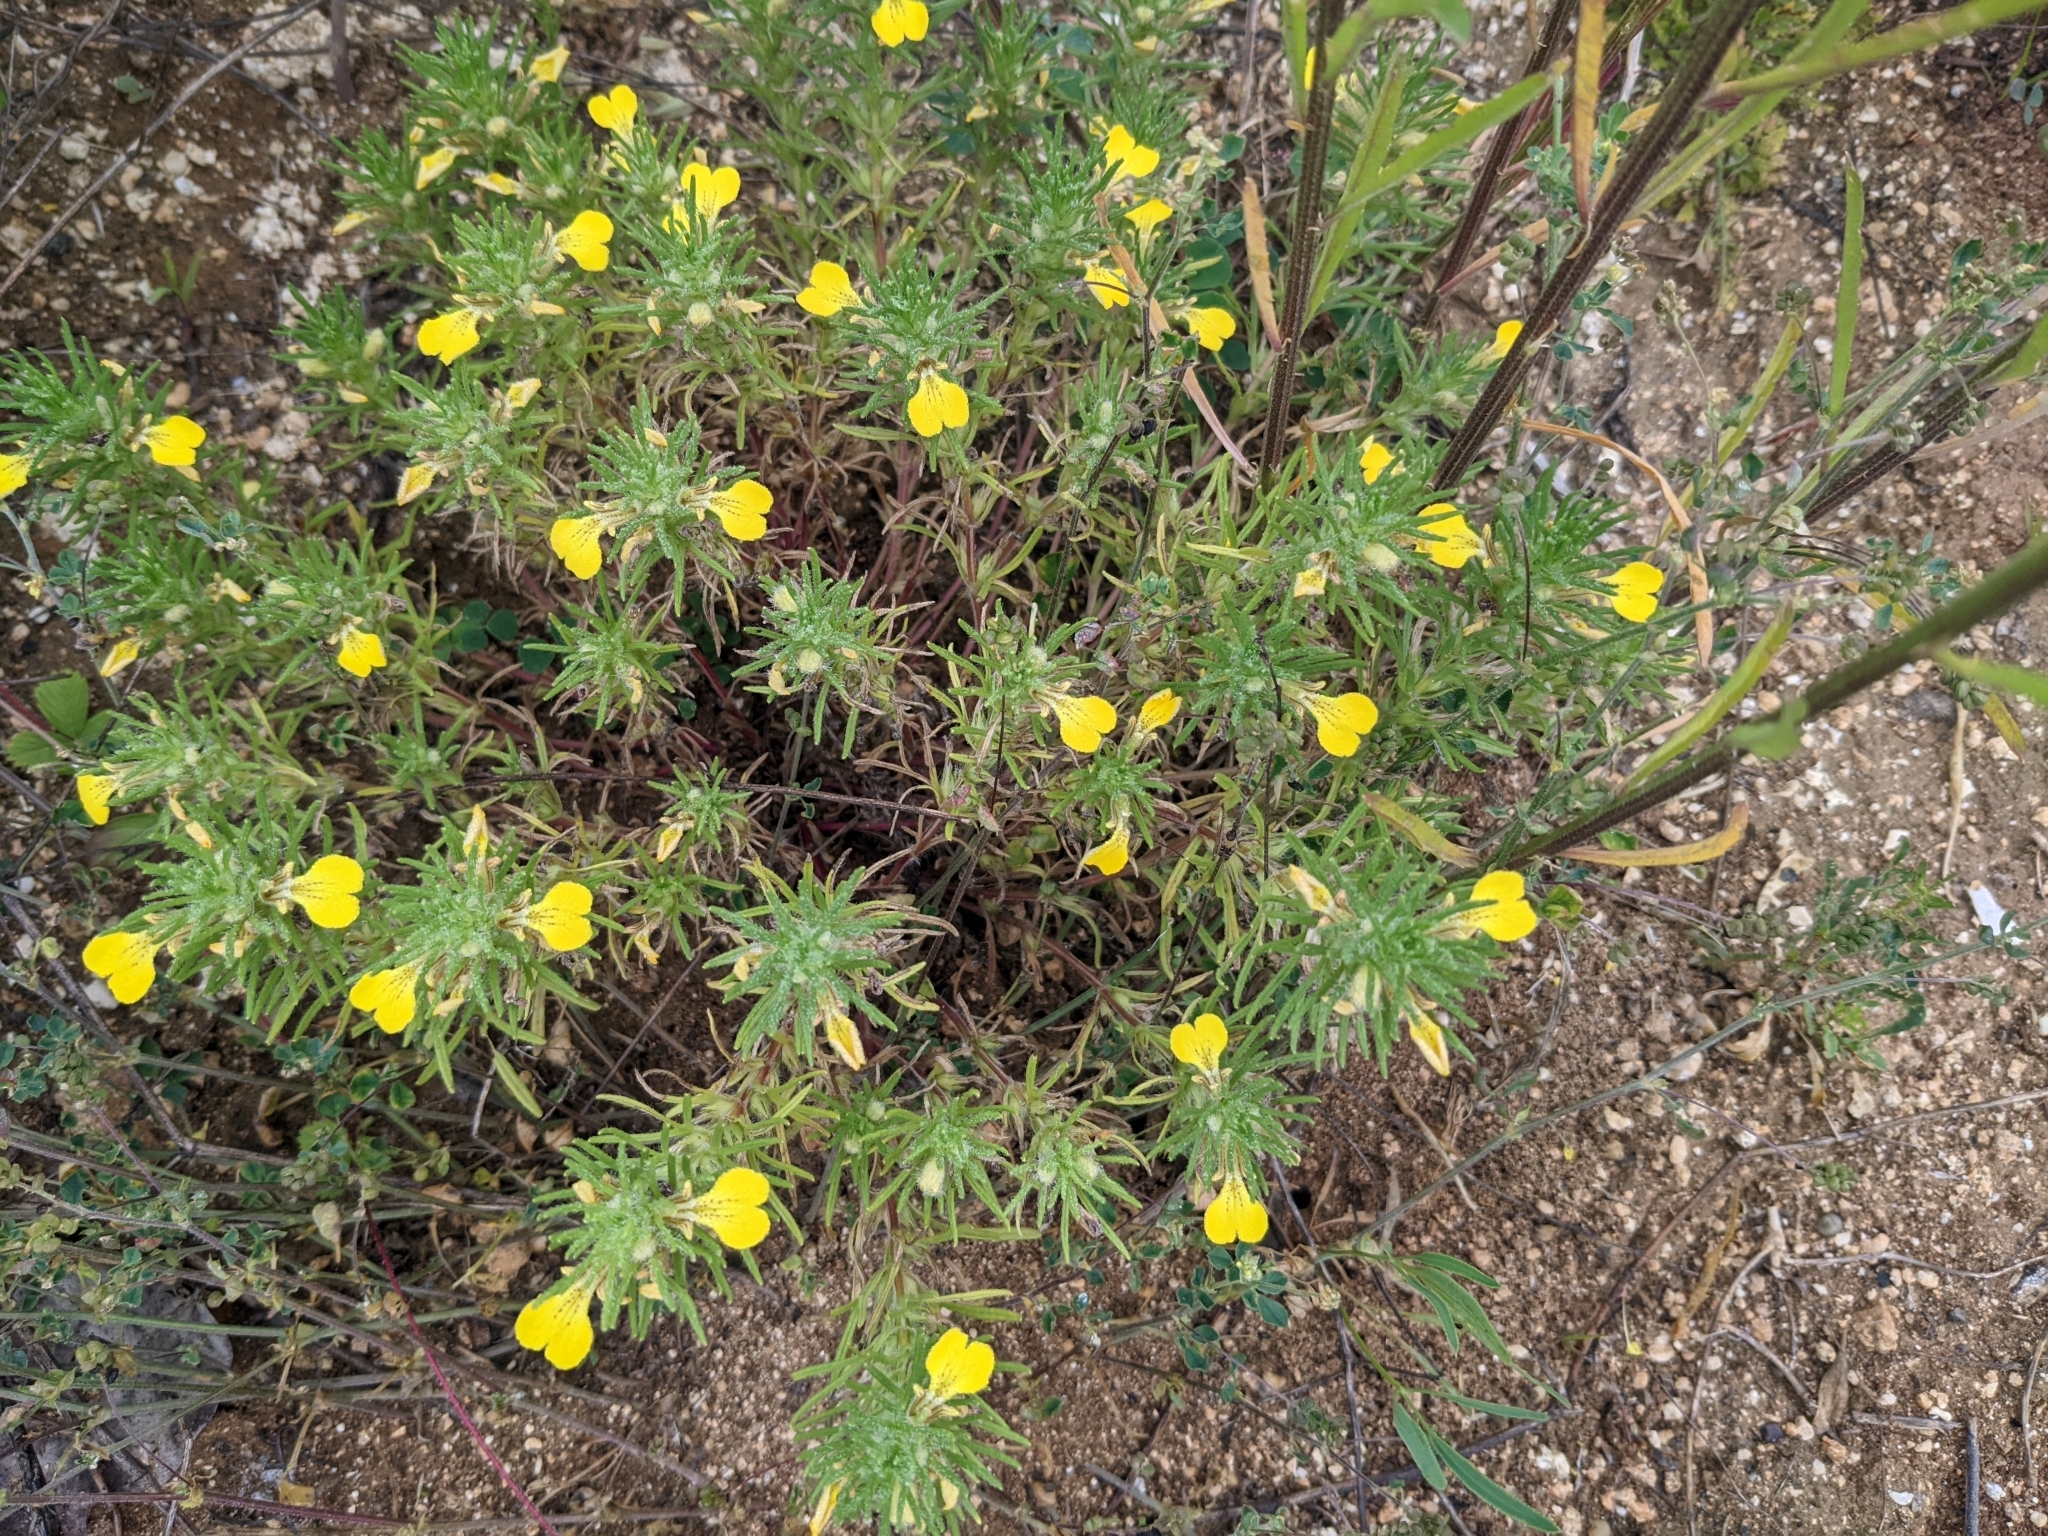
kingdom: Plantae
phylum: Tracheophyta
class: Magnoliopsida
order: Lamiales
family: Lamiaceae
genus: Ajuga
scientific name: Ajuga chamaepitys
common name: Ground-pine
